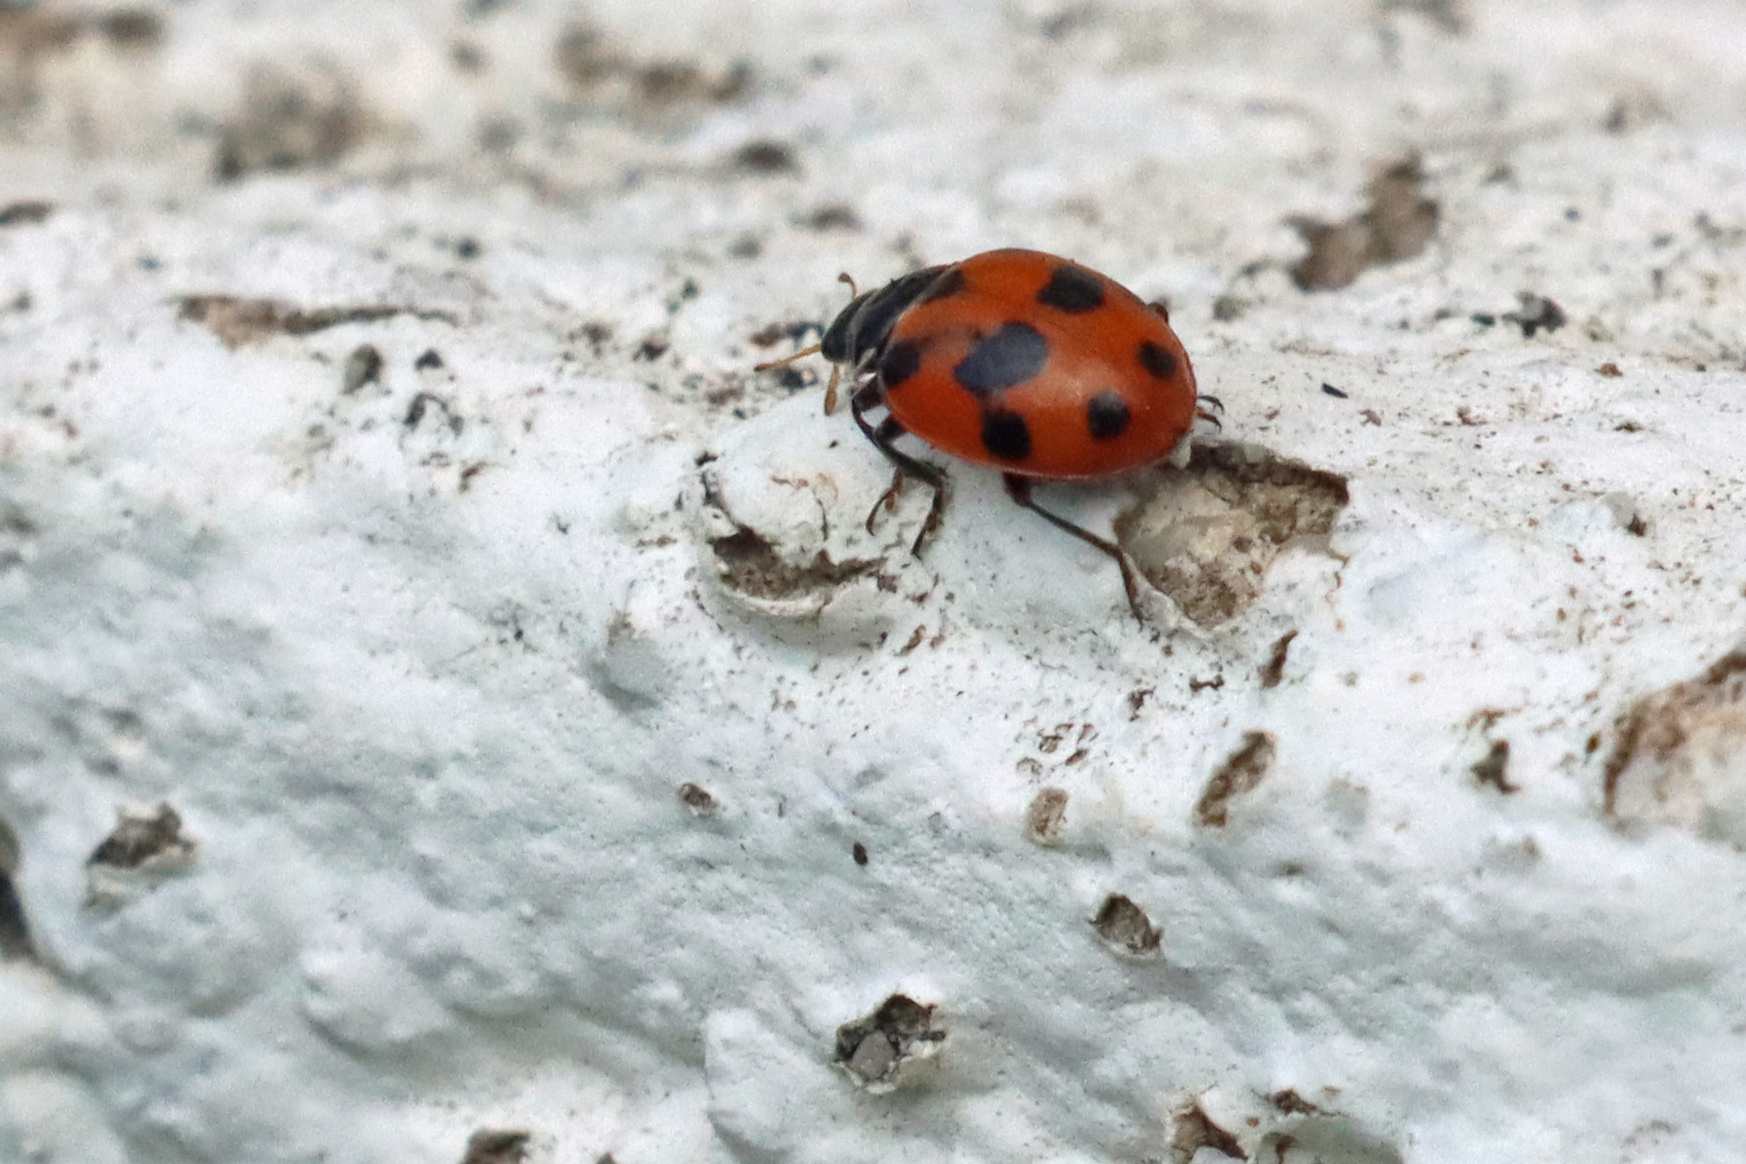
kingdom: Animalia
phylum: Arthropoda
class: Insecta
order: Coleoptera
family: Coccinellidae
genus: Hippodamia
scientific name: Hippodamia variegata
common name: Ladybird beetle
